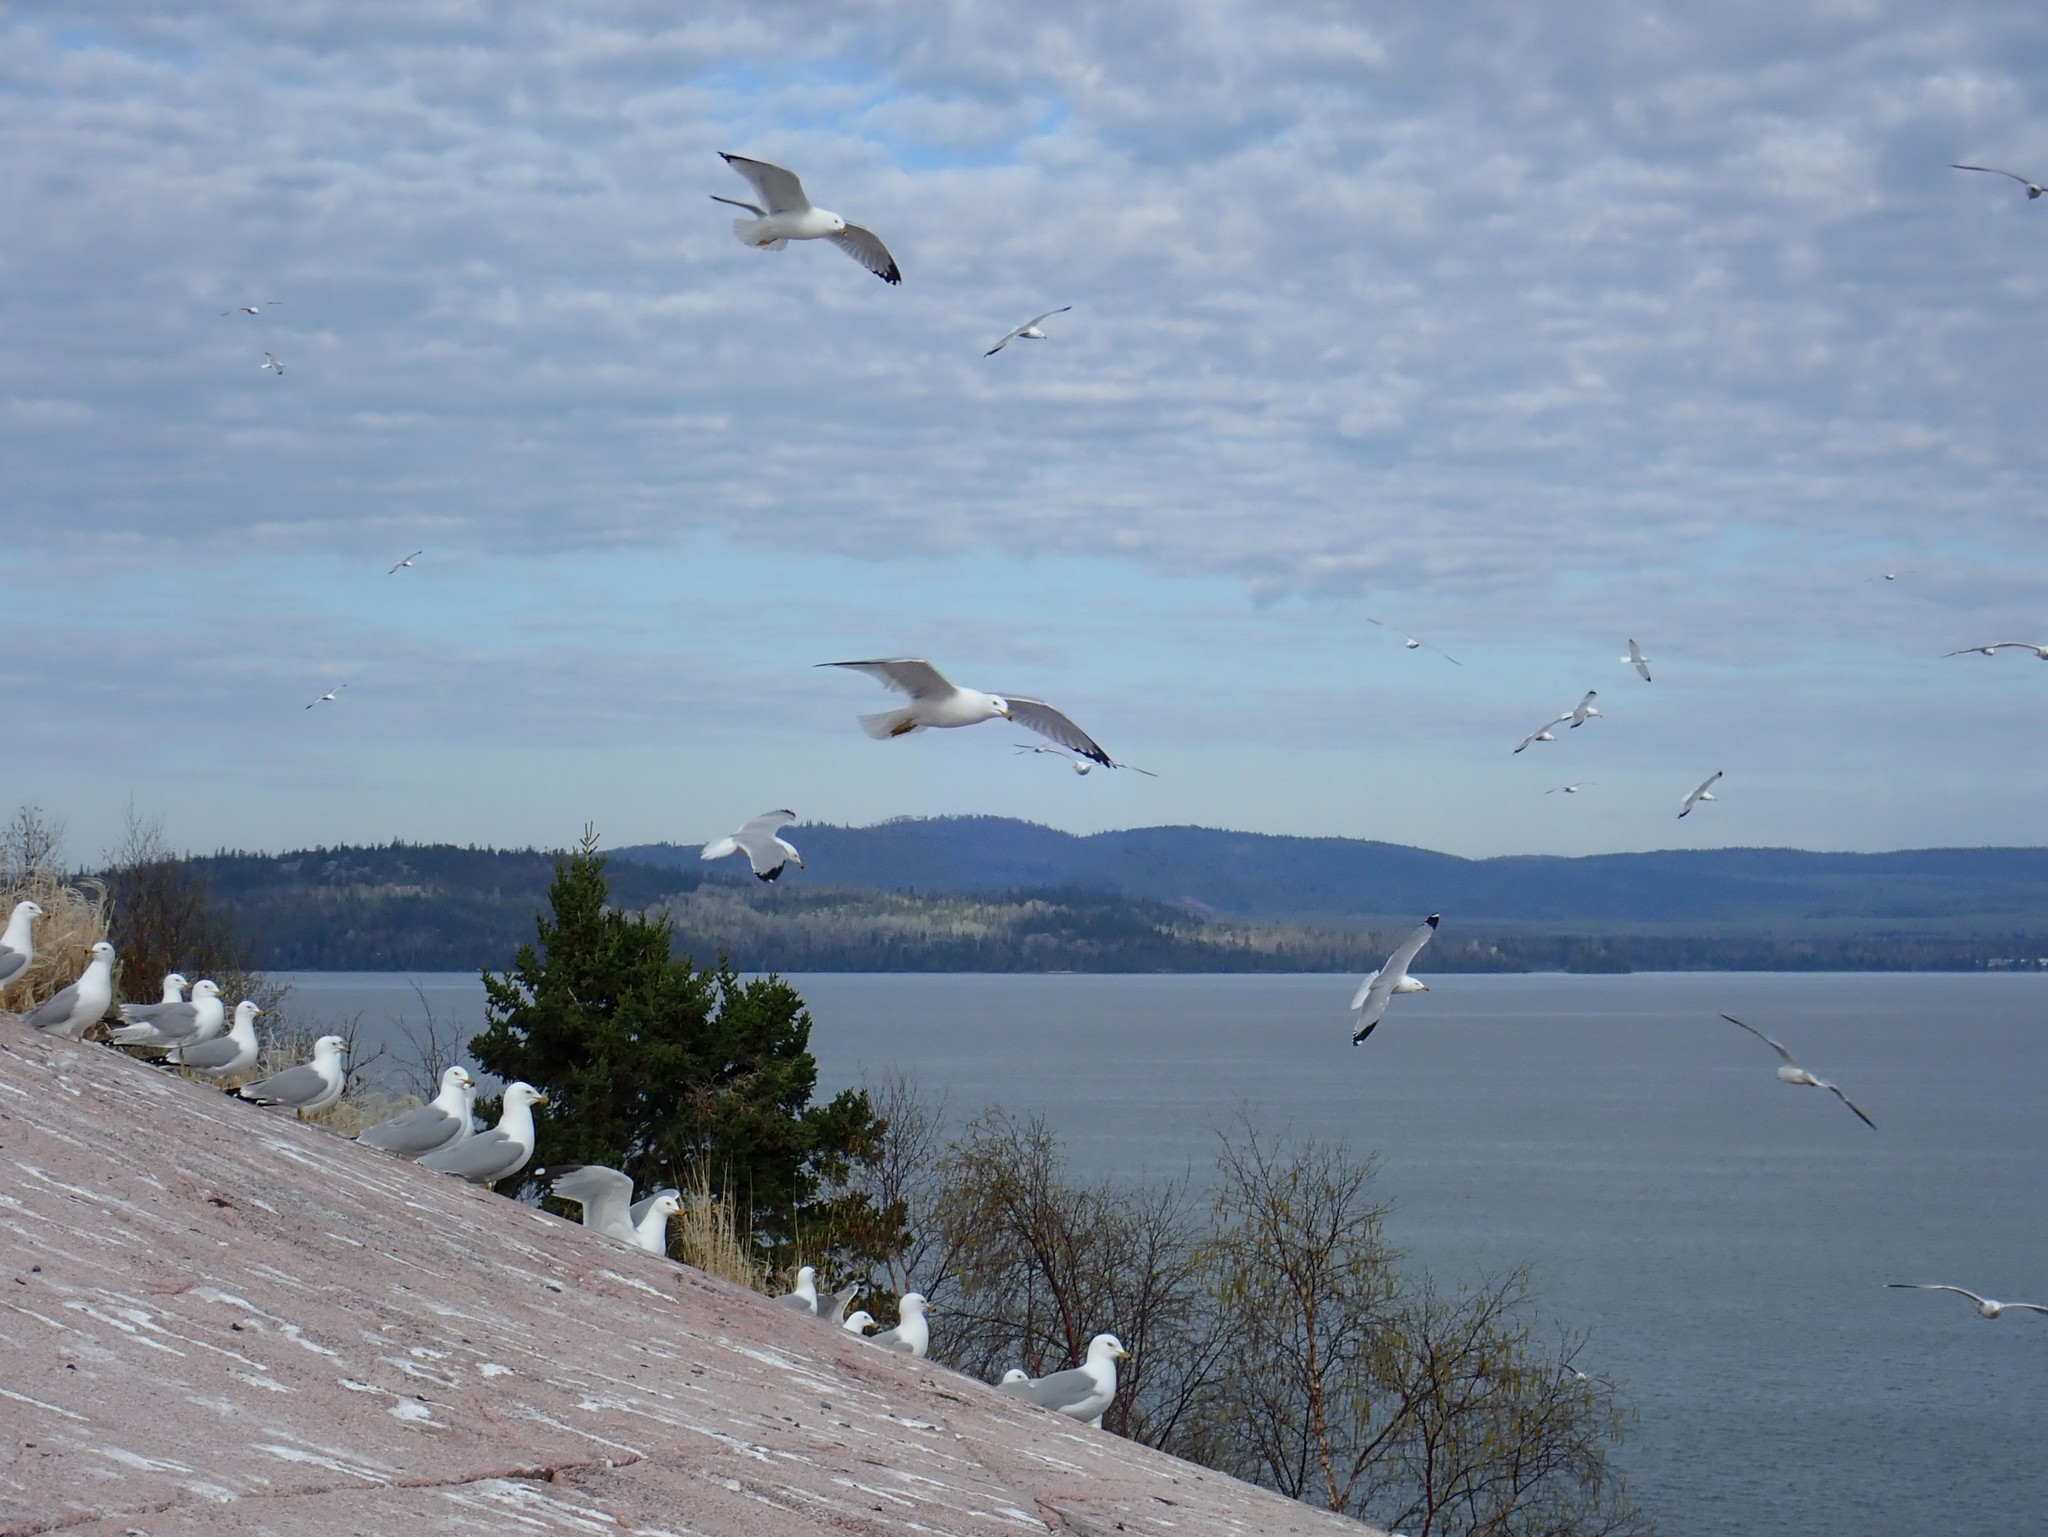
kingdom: Animalia
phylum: Chordata
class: Aves
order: Charadriiformes
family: Laridae
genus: Larus
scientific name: Larus delawarensis
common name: Ring-billed gull
